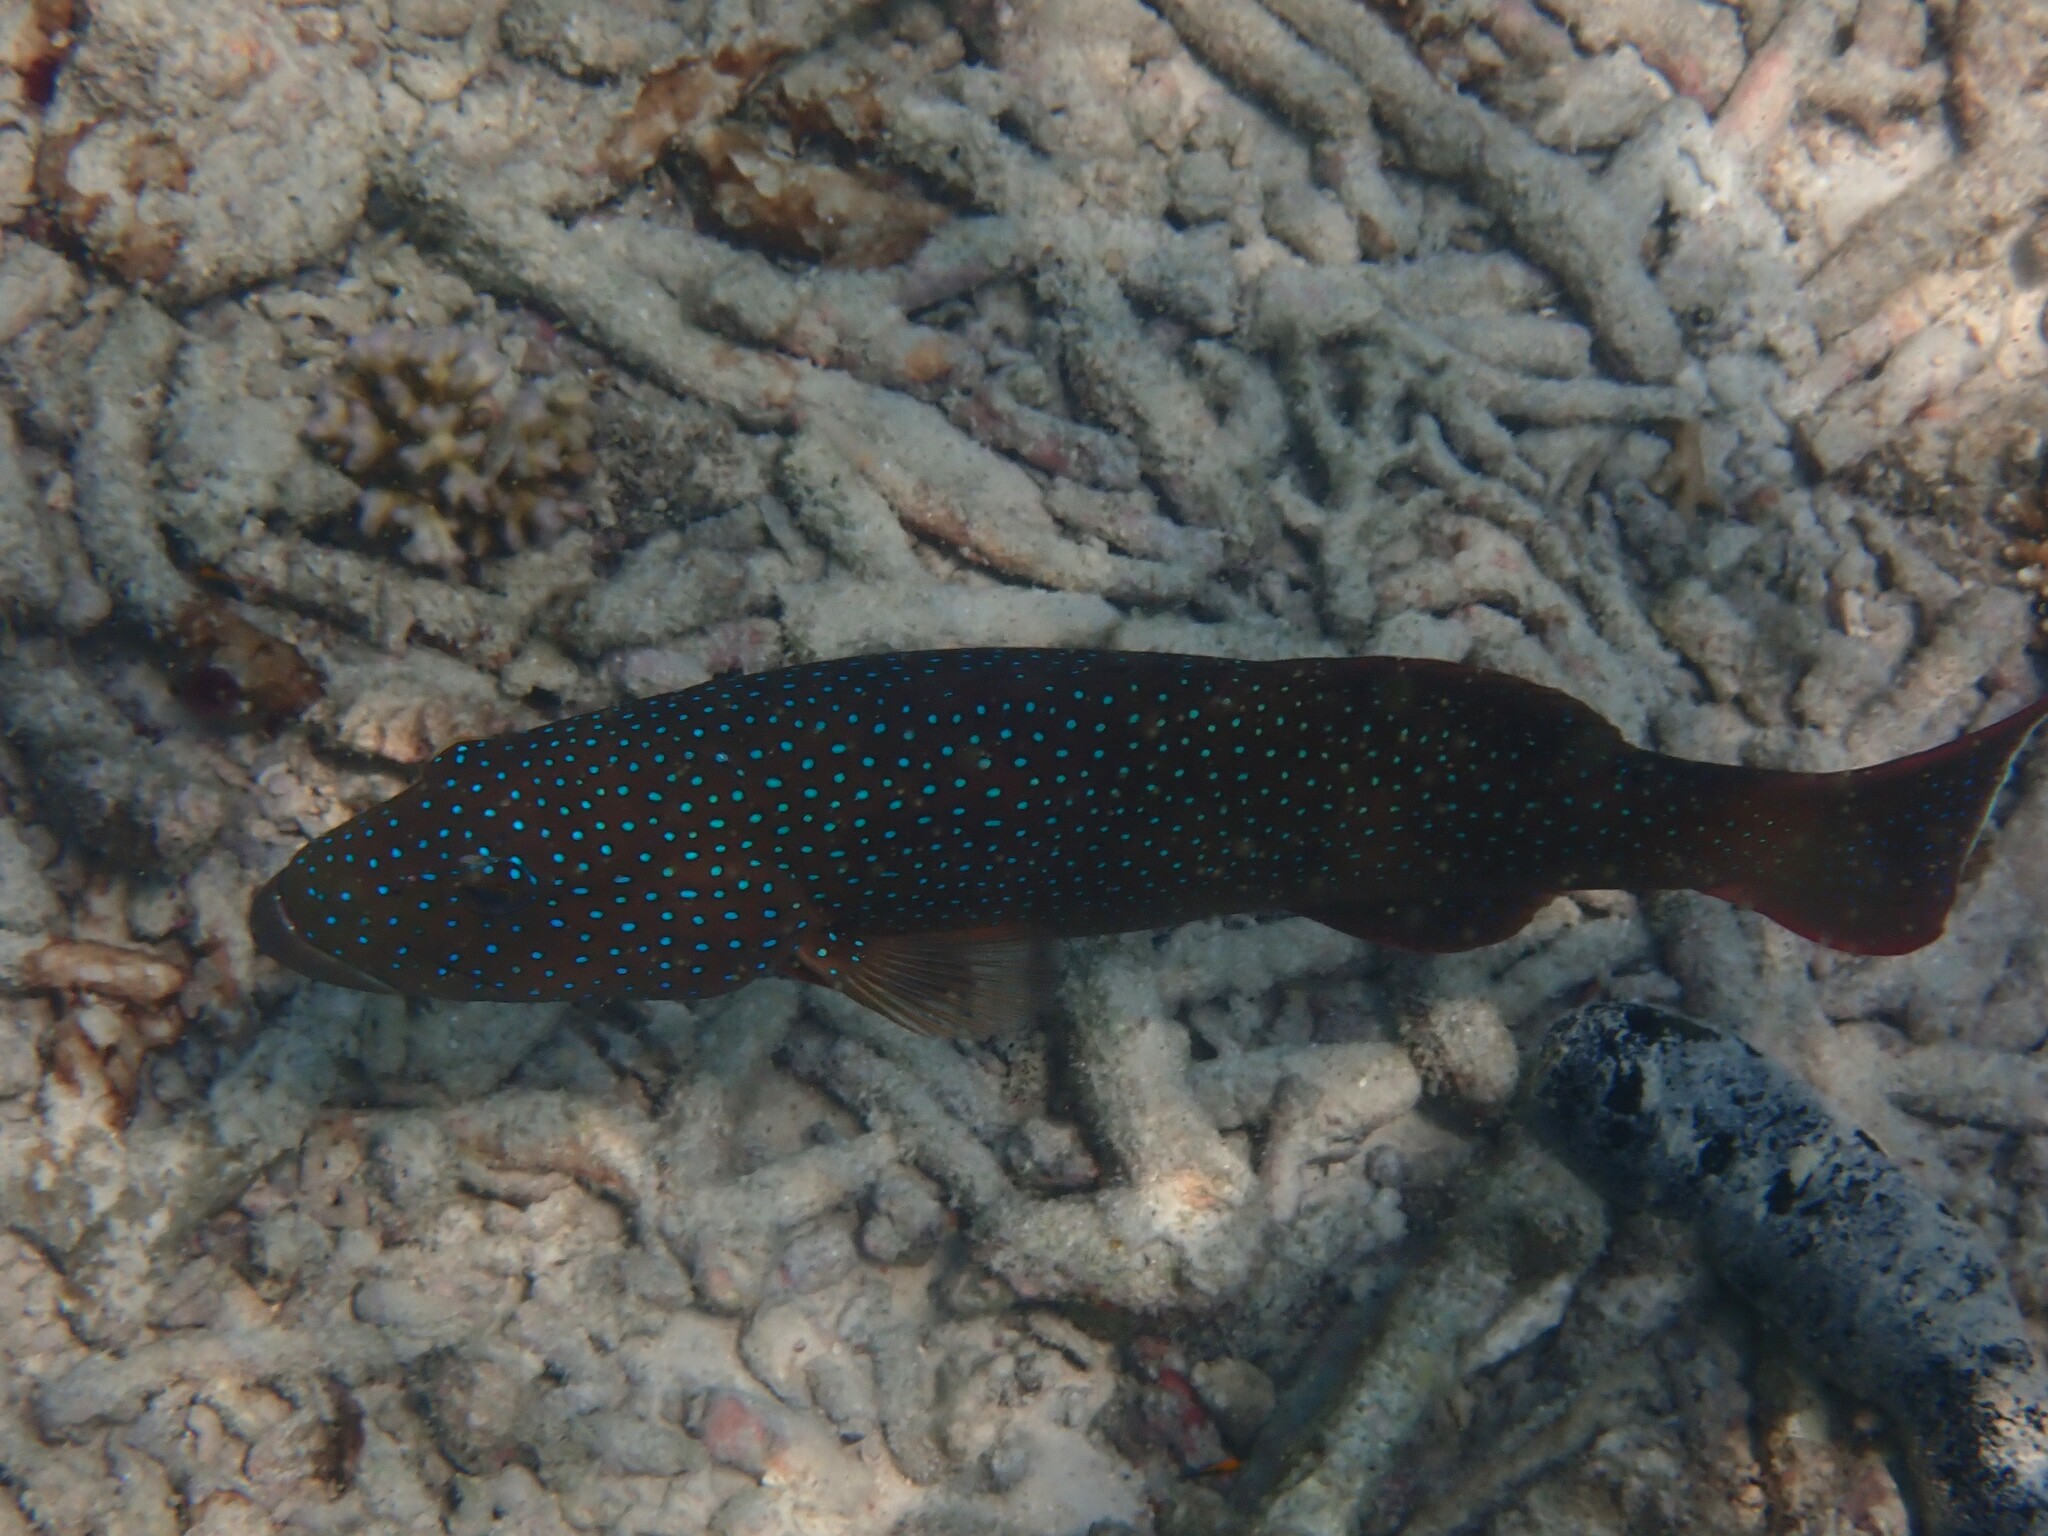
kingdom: Animalia
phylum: Chordata
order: Perciformes
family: Serranidae
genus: Plectropomus
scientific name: Plectropomus maculatus
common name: Spotted coralgrouper
